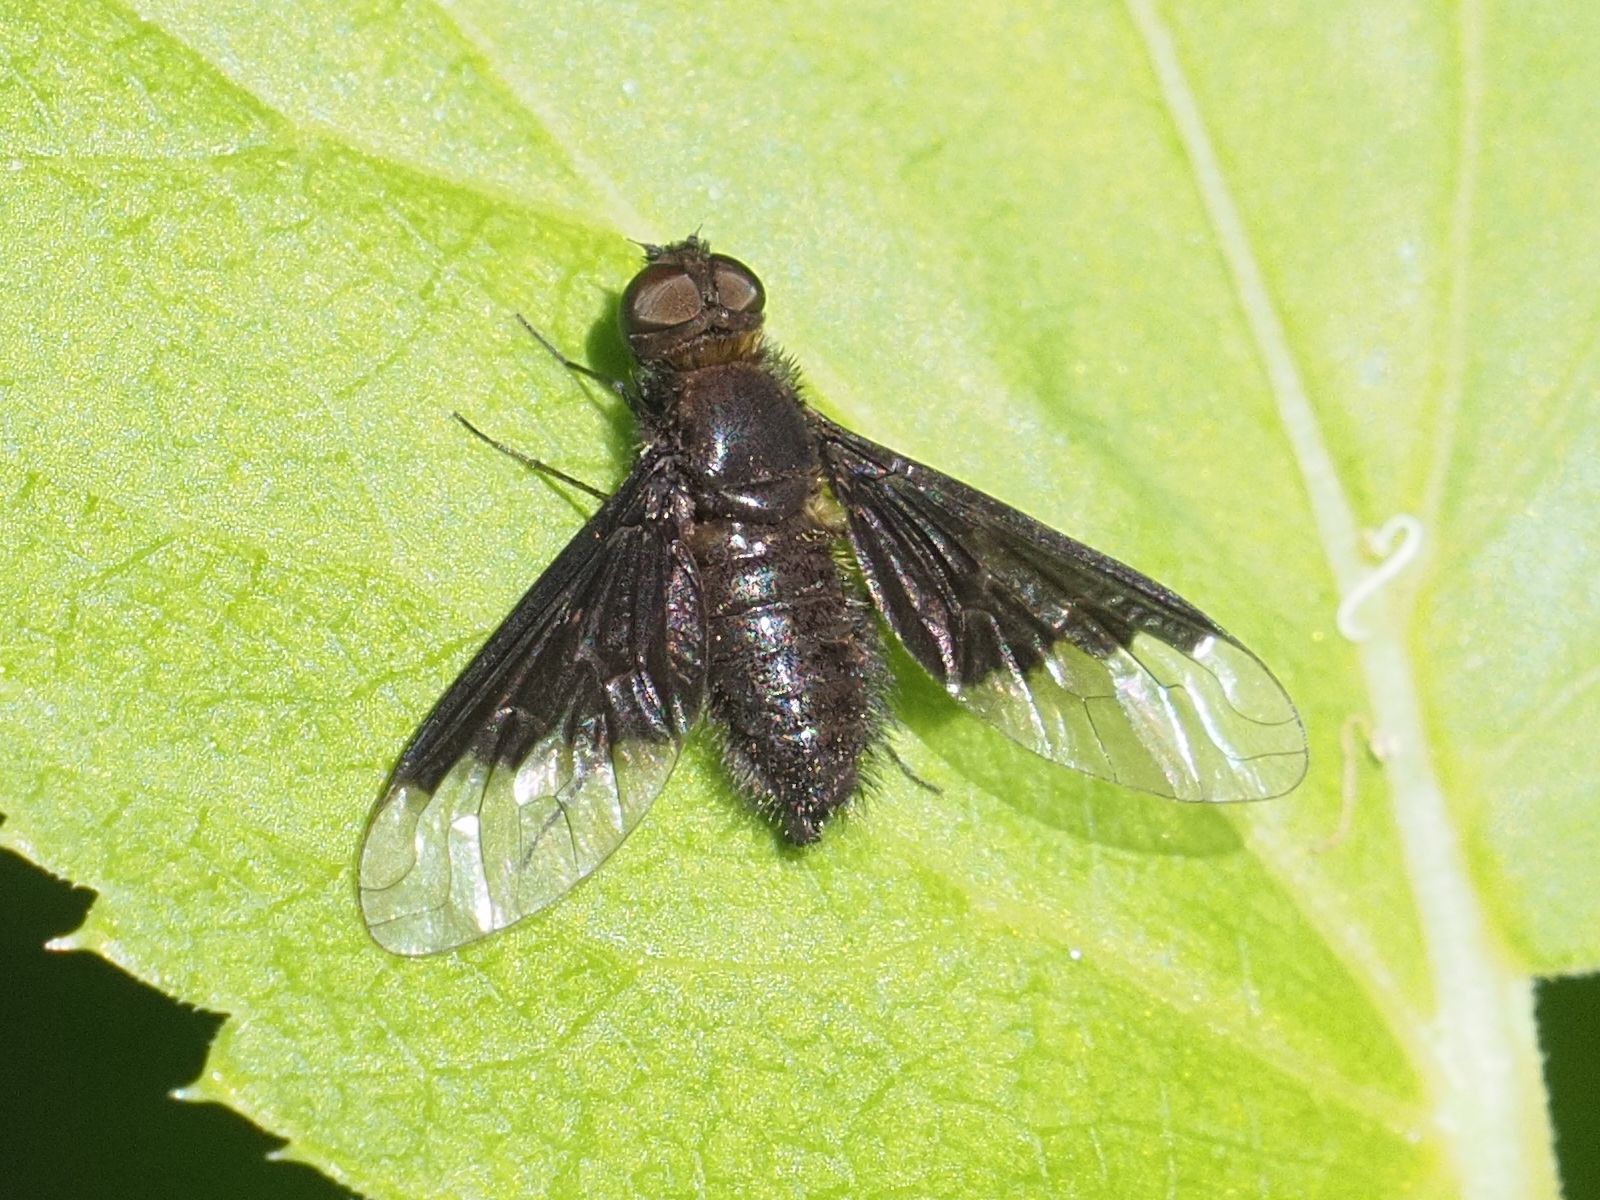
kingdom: Animalia
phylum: Arthropoda
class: Insecta
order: Diptera
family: Bombyliidae
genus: Hemipenthes
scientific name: Hemipenthes morio
